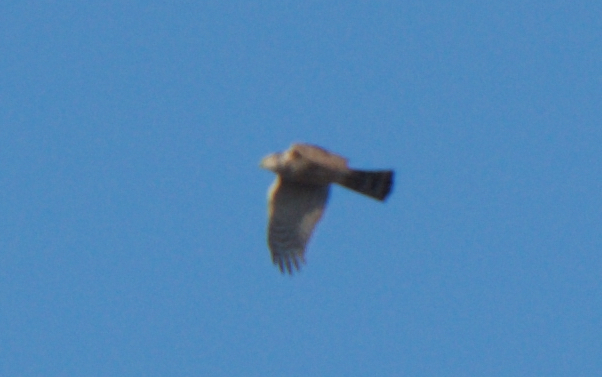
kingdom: Animalia
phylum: Chordata
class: Aves
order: Accipitriformes
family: Accipitridae
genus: Accipiter
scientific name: Accipiter striatus
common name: Sharp-shinned hawk
